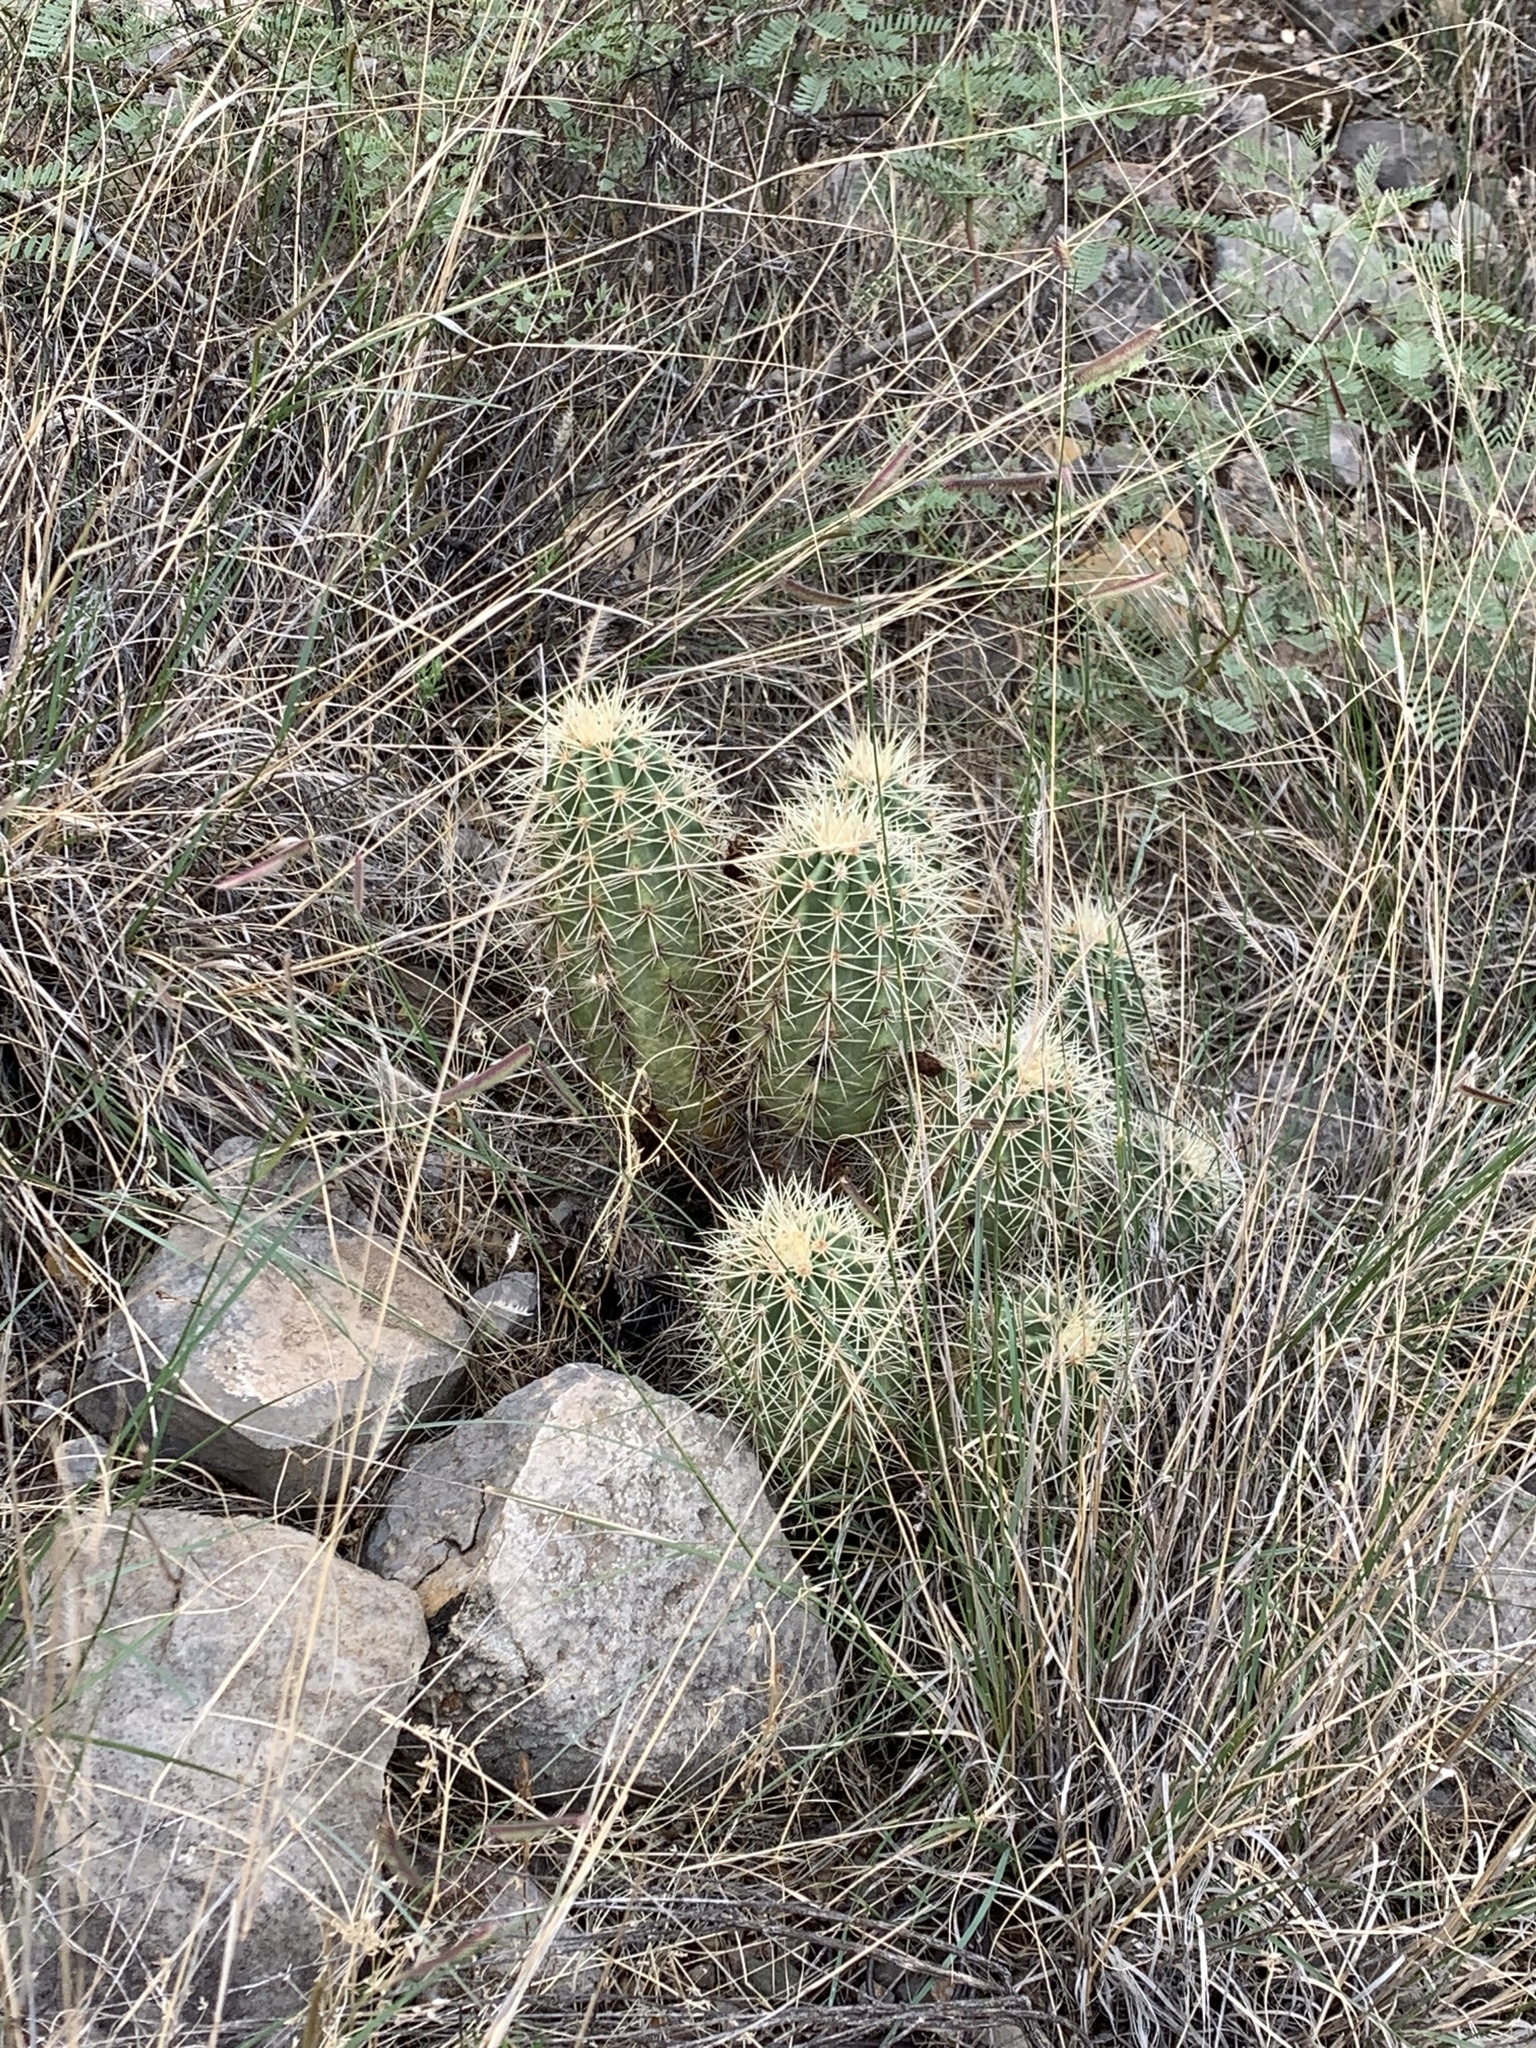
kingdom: Plantae
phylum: Tracheophyta
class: Magnoliopsida
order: Caryophyllales
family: Cactaceae
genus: Echinocereus
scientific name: Echinocereus coccineus
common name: Scarlet hedgehog cactus
